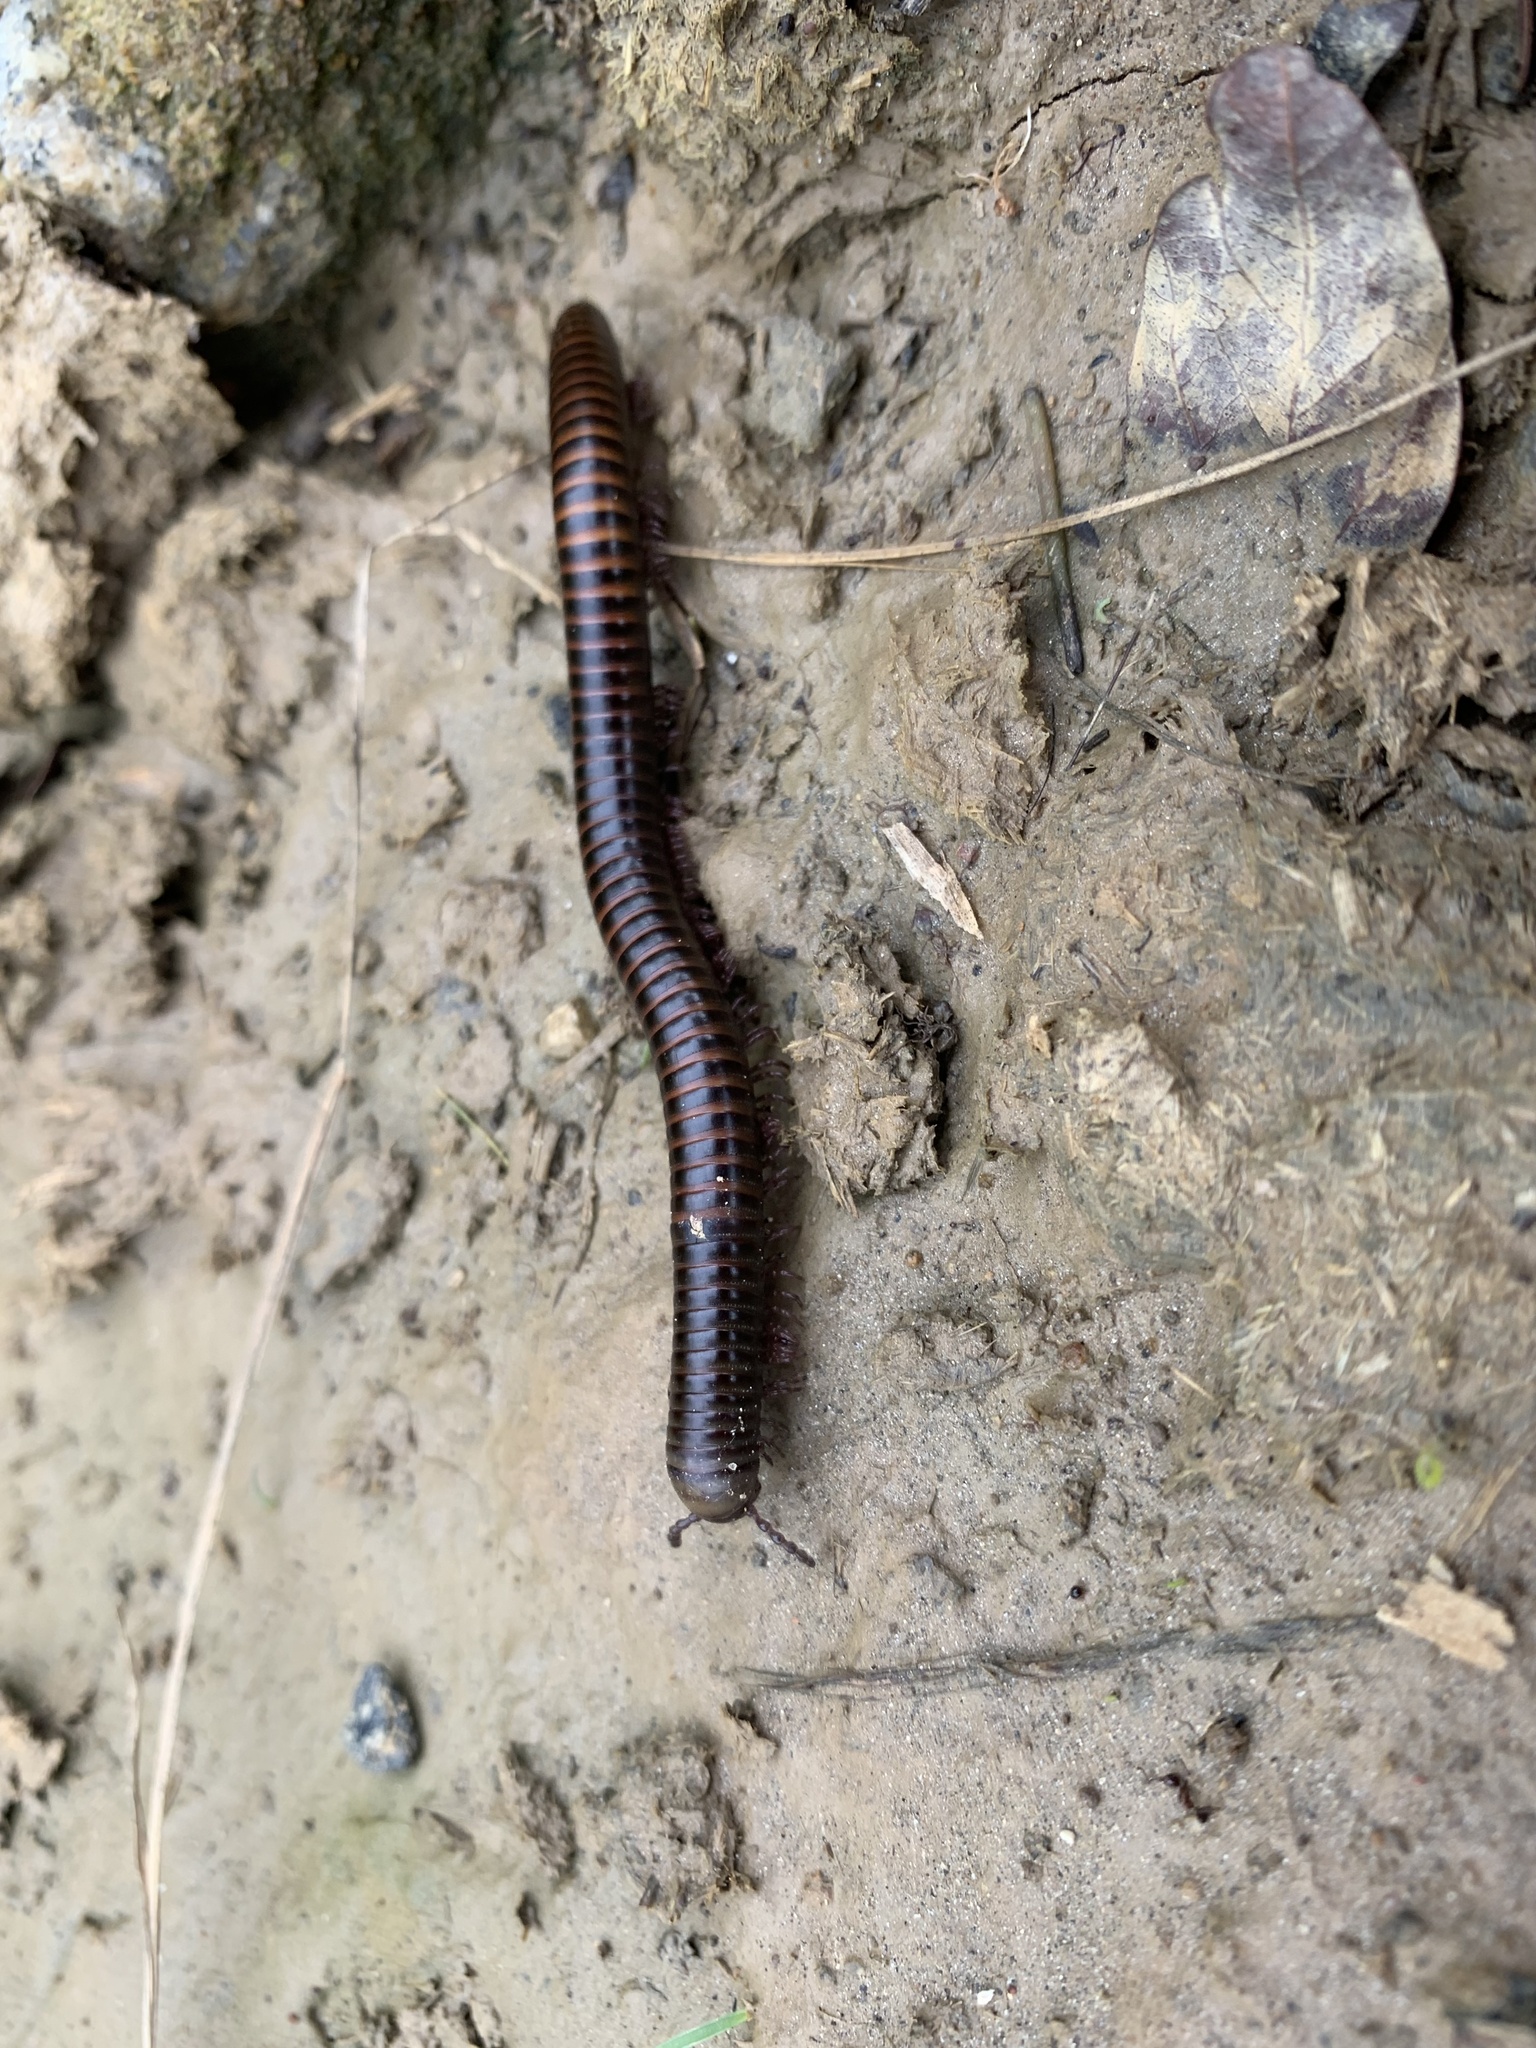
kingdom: Animalia
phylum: Arthropoda
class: Diplopoda
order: Julida
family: Julidae
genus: Cylindroiulus
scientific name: Cylindroiulus caeruleocinctus
